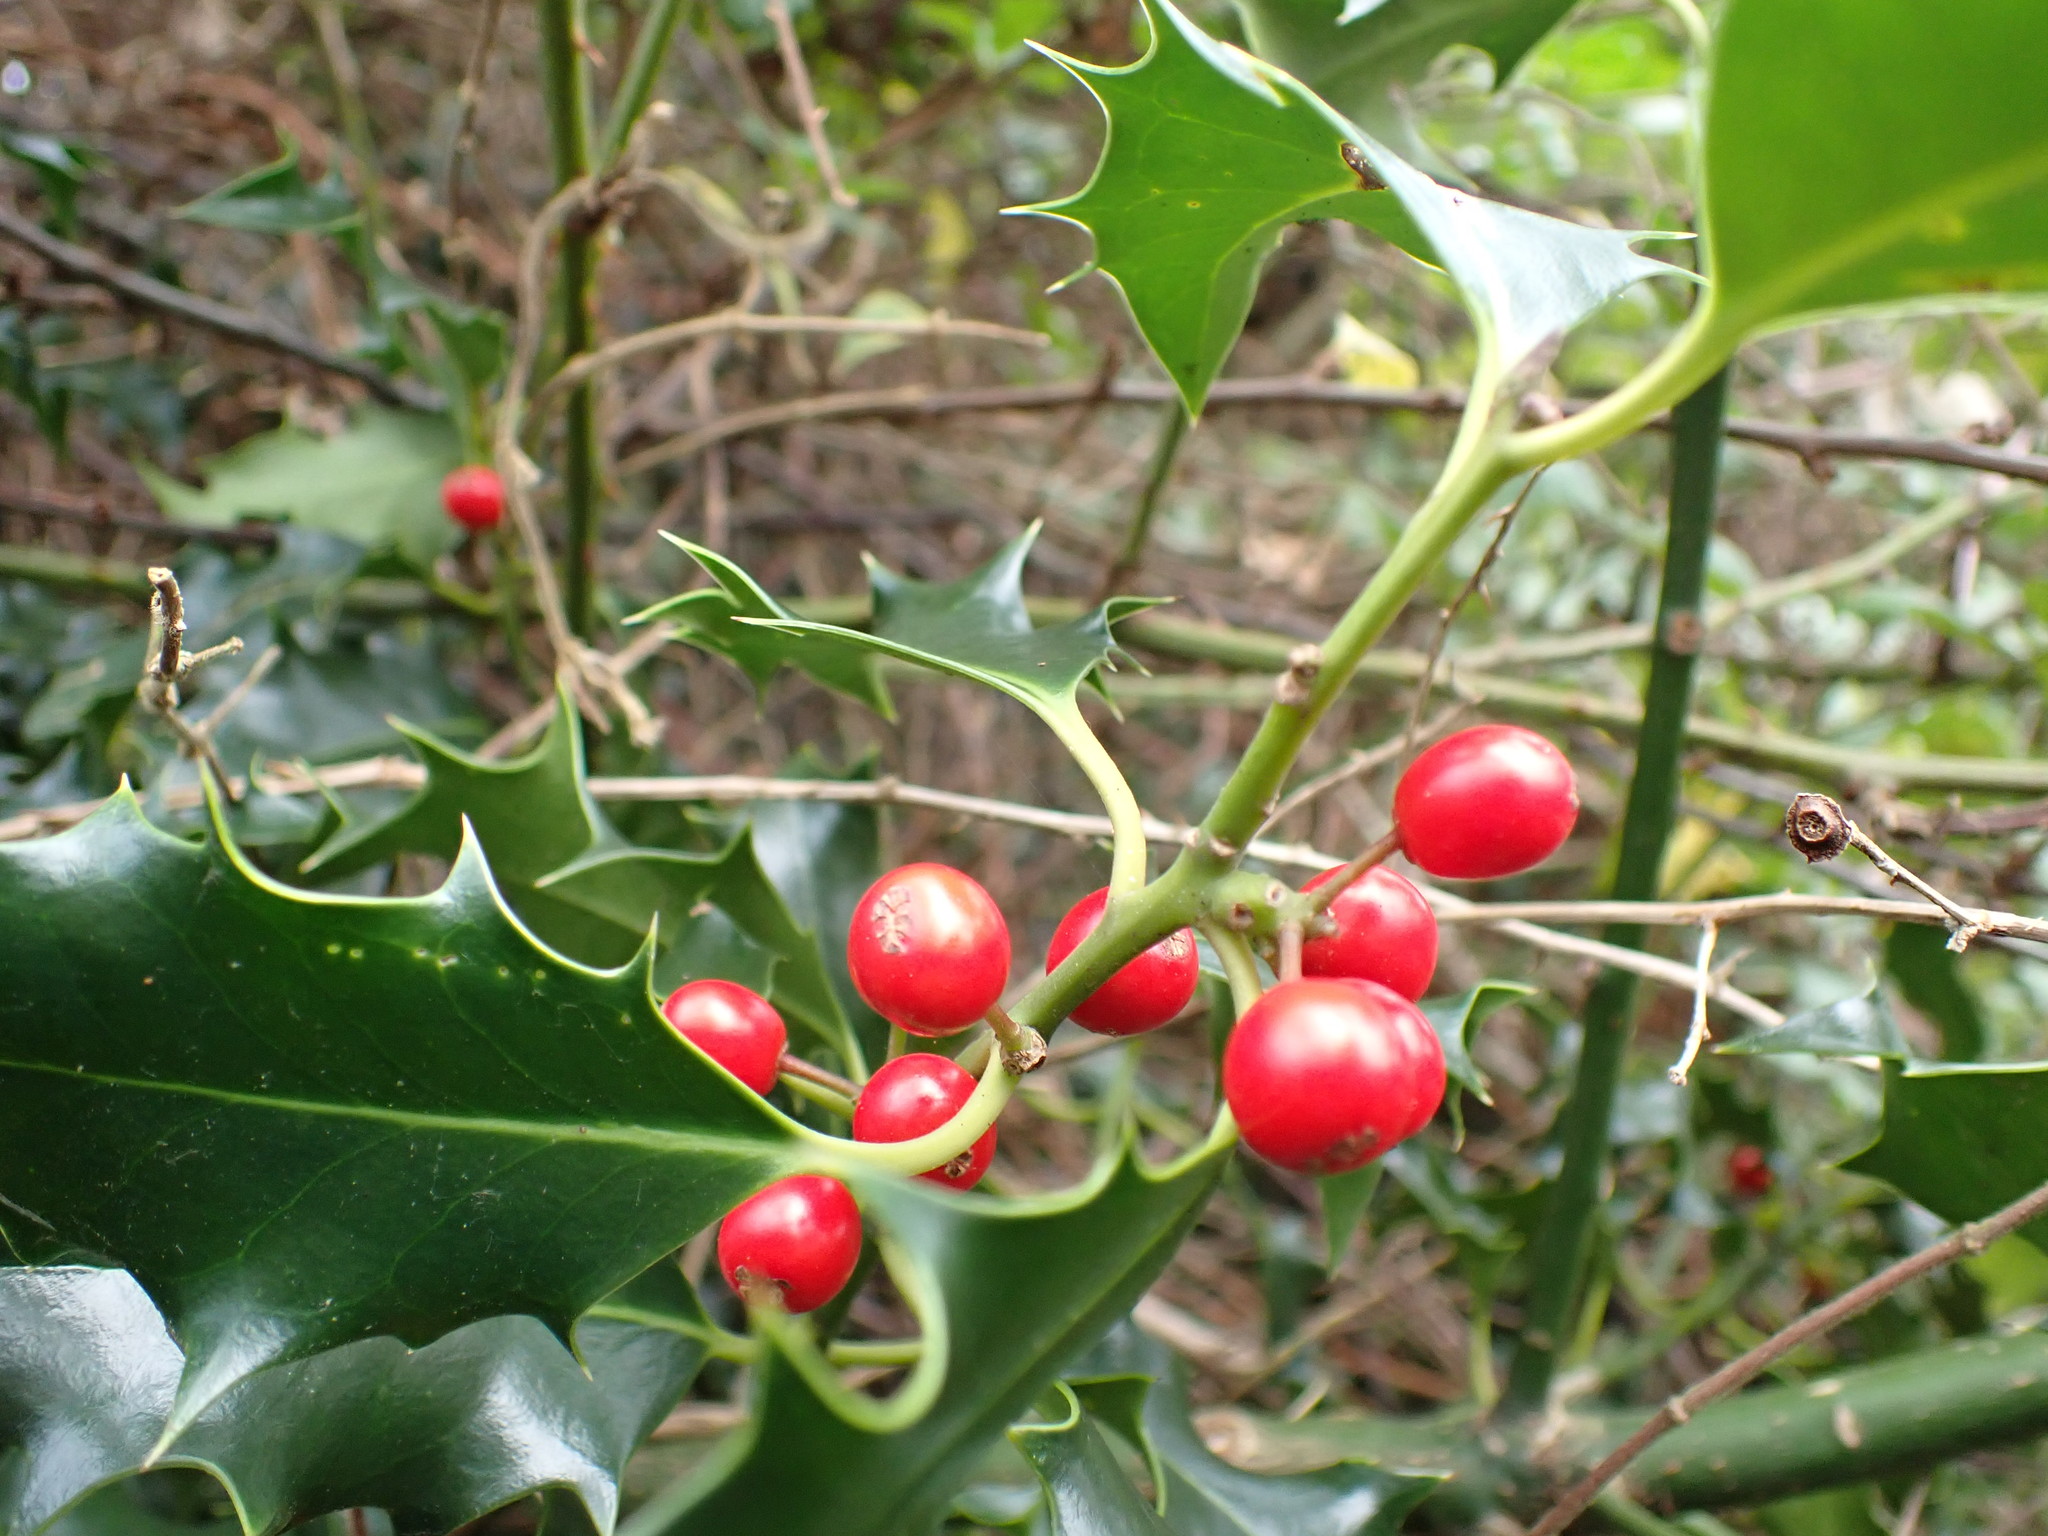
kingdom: Plantae
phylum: Tracheophyta
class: Magnoliopsida
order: Aquifoliales
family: Aquifoliaceae
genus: Ilex
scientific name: Ilex aquifolium
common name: English holly
